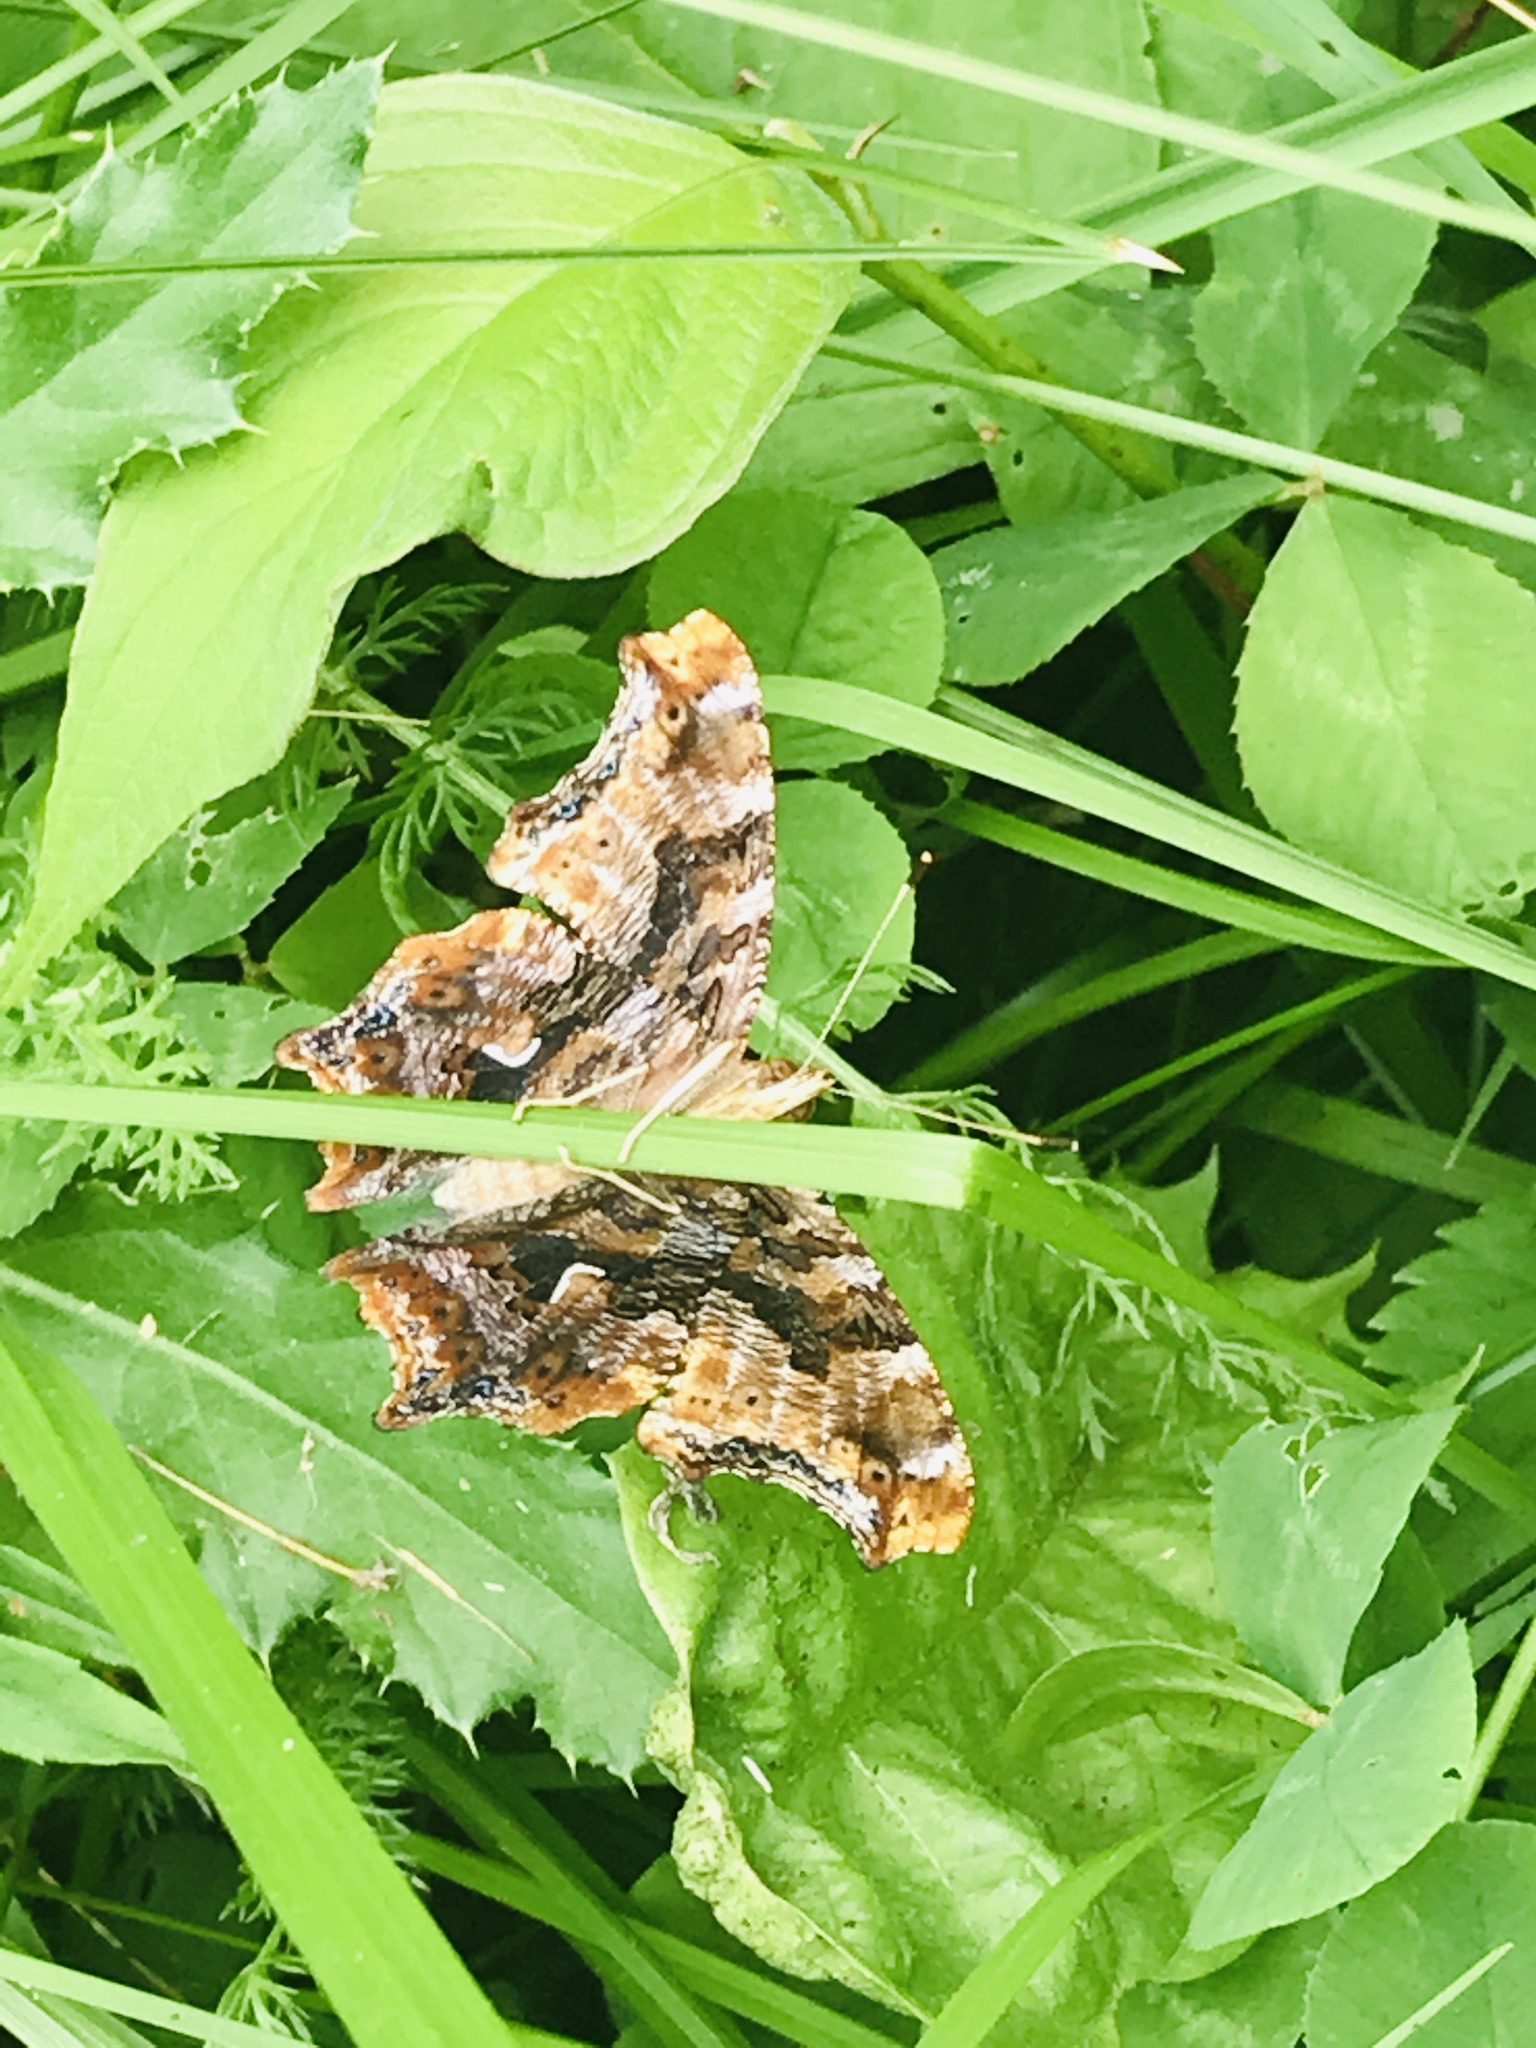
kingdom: Animalia
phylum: Arthropoda
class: Insecta
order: Lepidoptera
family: Nymphalidae
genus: Polygonia
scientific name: Polygonia comma
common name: Eastern comma
